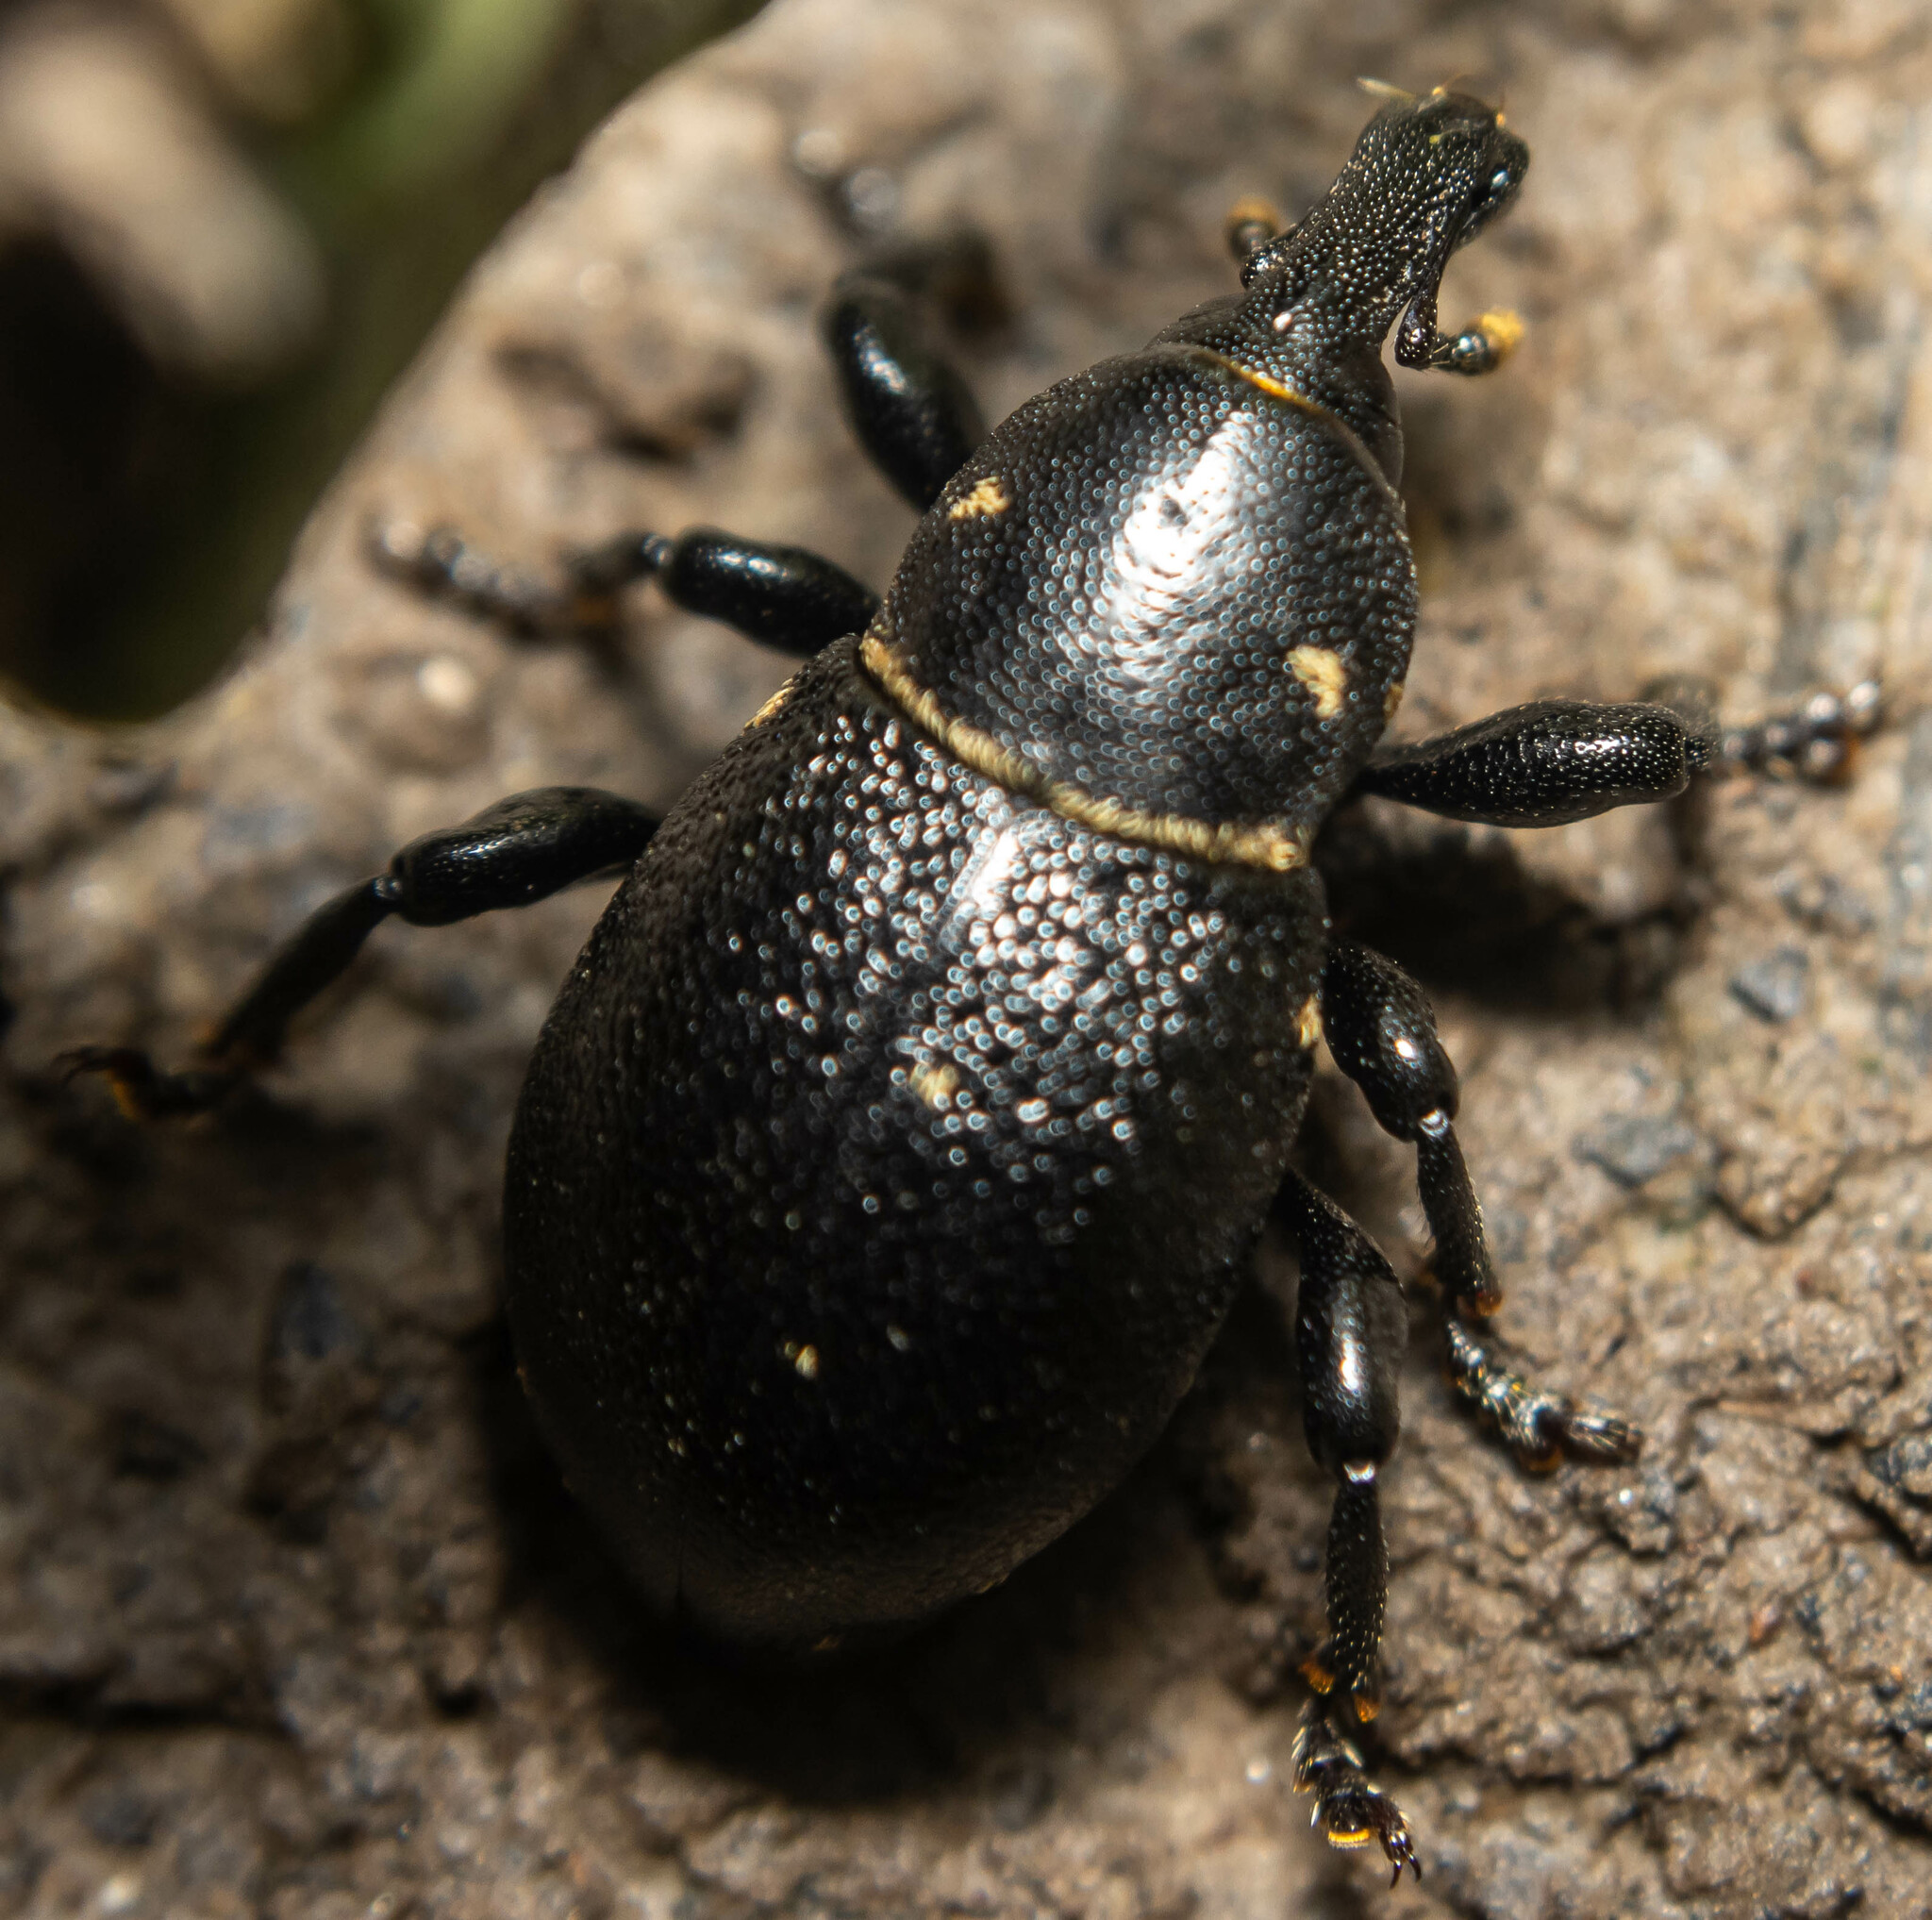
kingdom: Animalia
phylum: Arthropoda
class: Insecta
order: Coleoptera
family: Curculionidae
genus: Liparus
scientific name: Liparus coronatus
